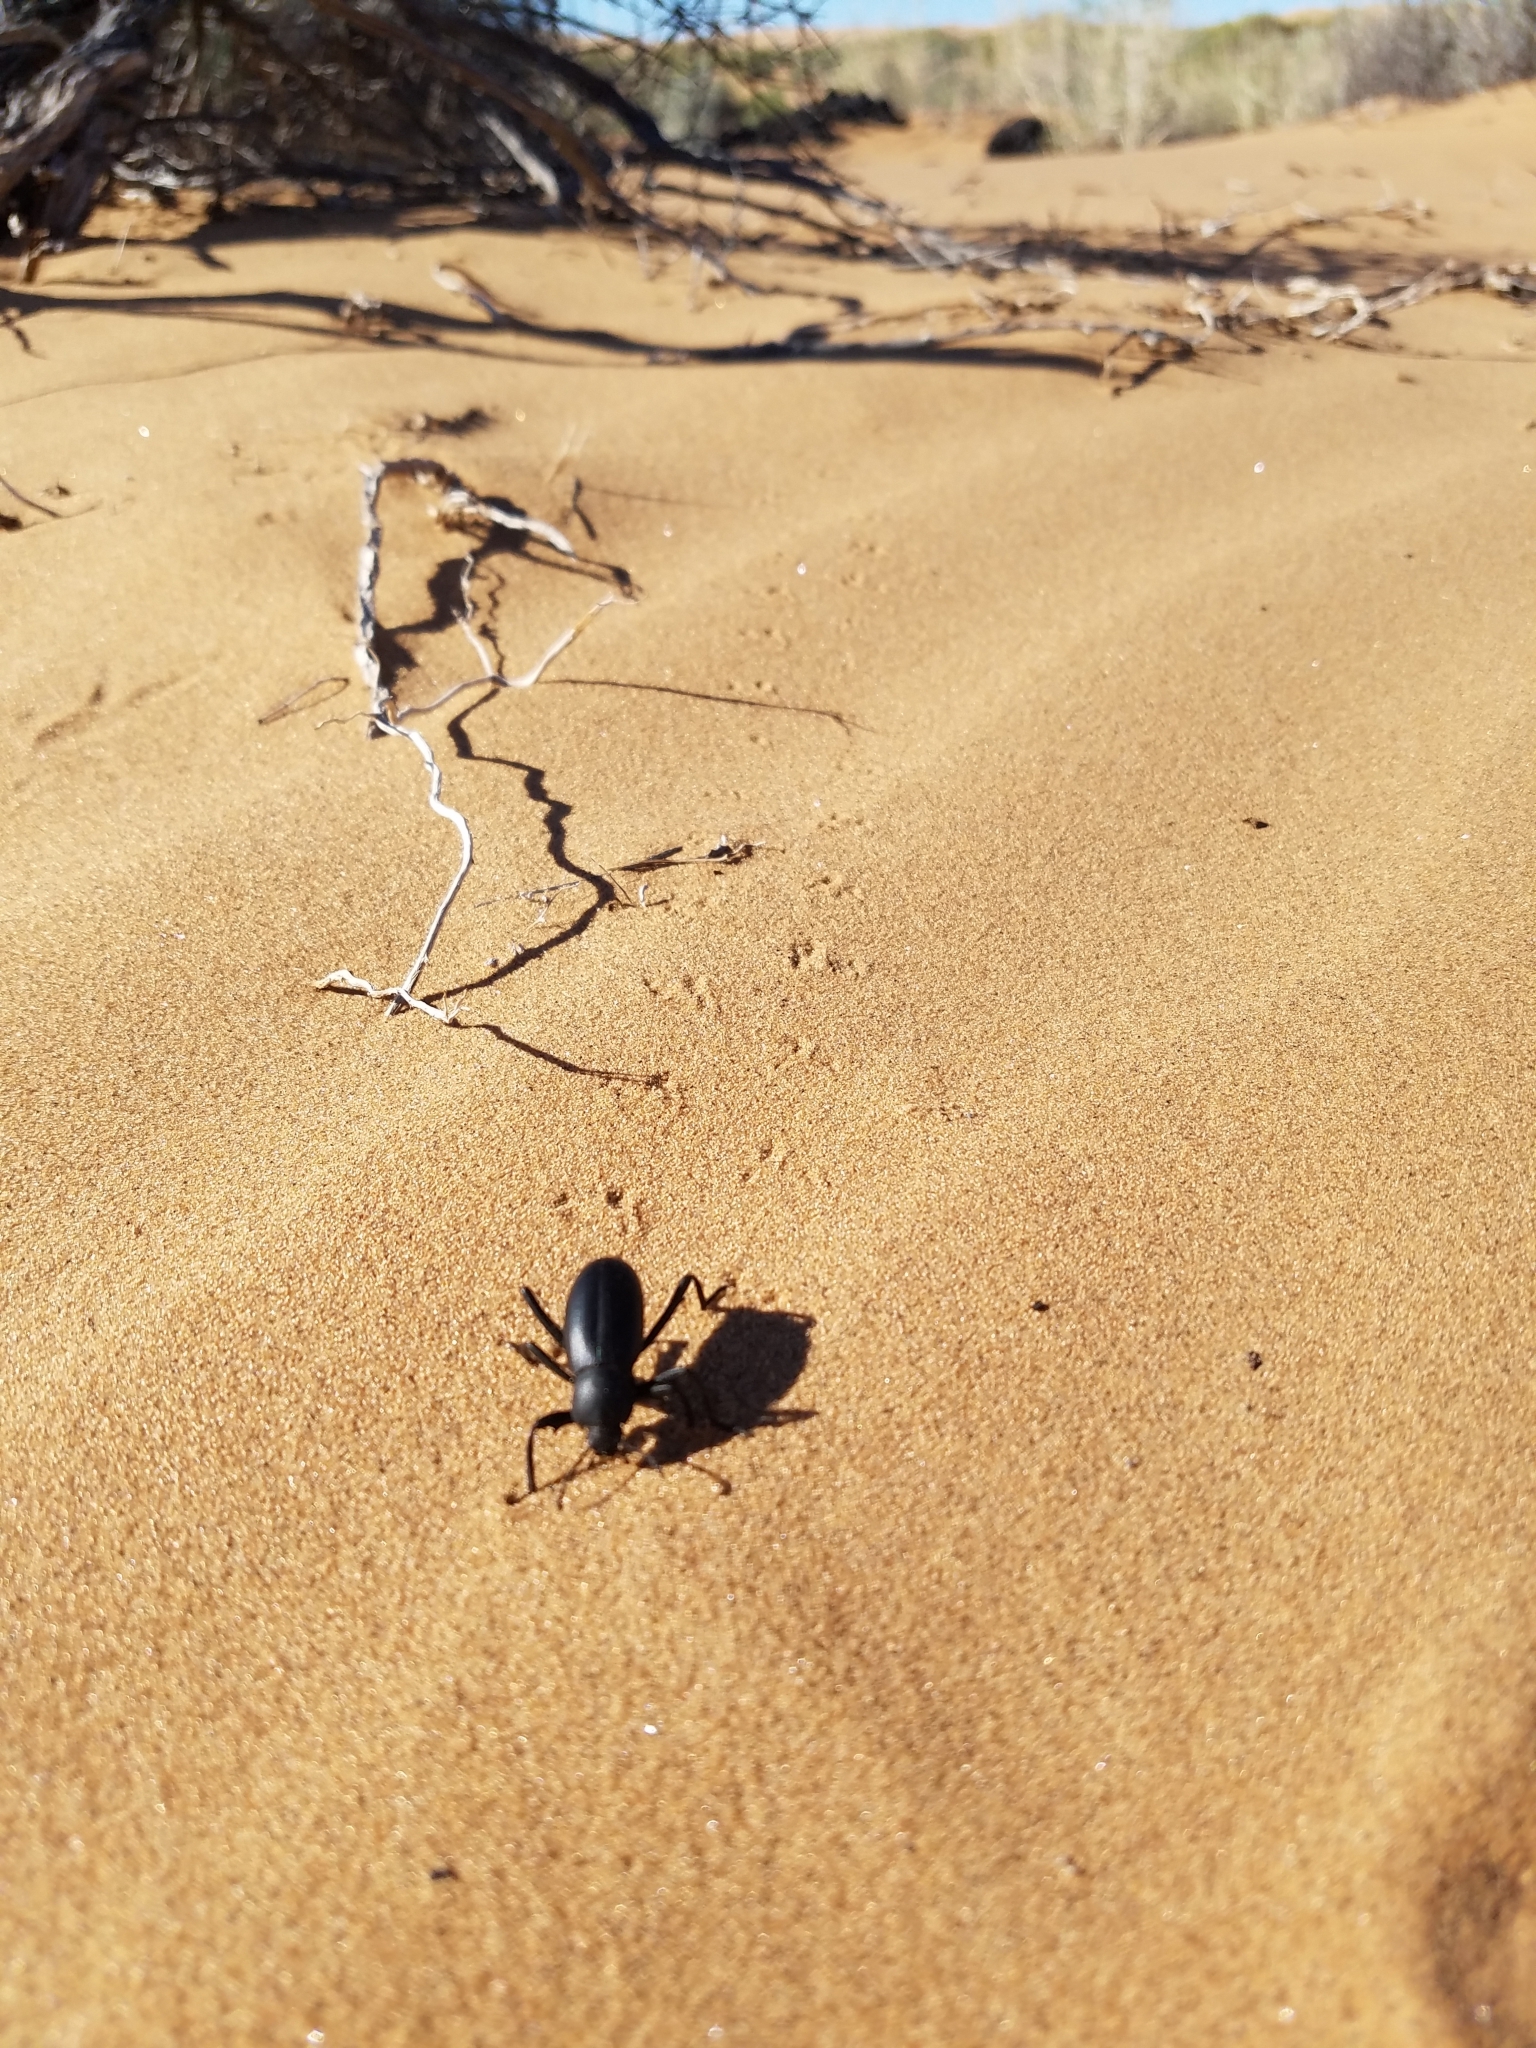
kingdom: Animalia
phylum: Arthropoda
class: Insecta
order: Coleoptera
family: Tenebrionidae
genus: Eleodes
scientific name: Eleodes armata
